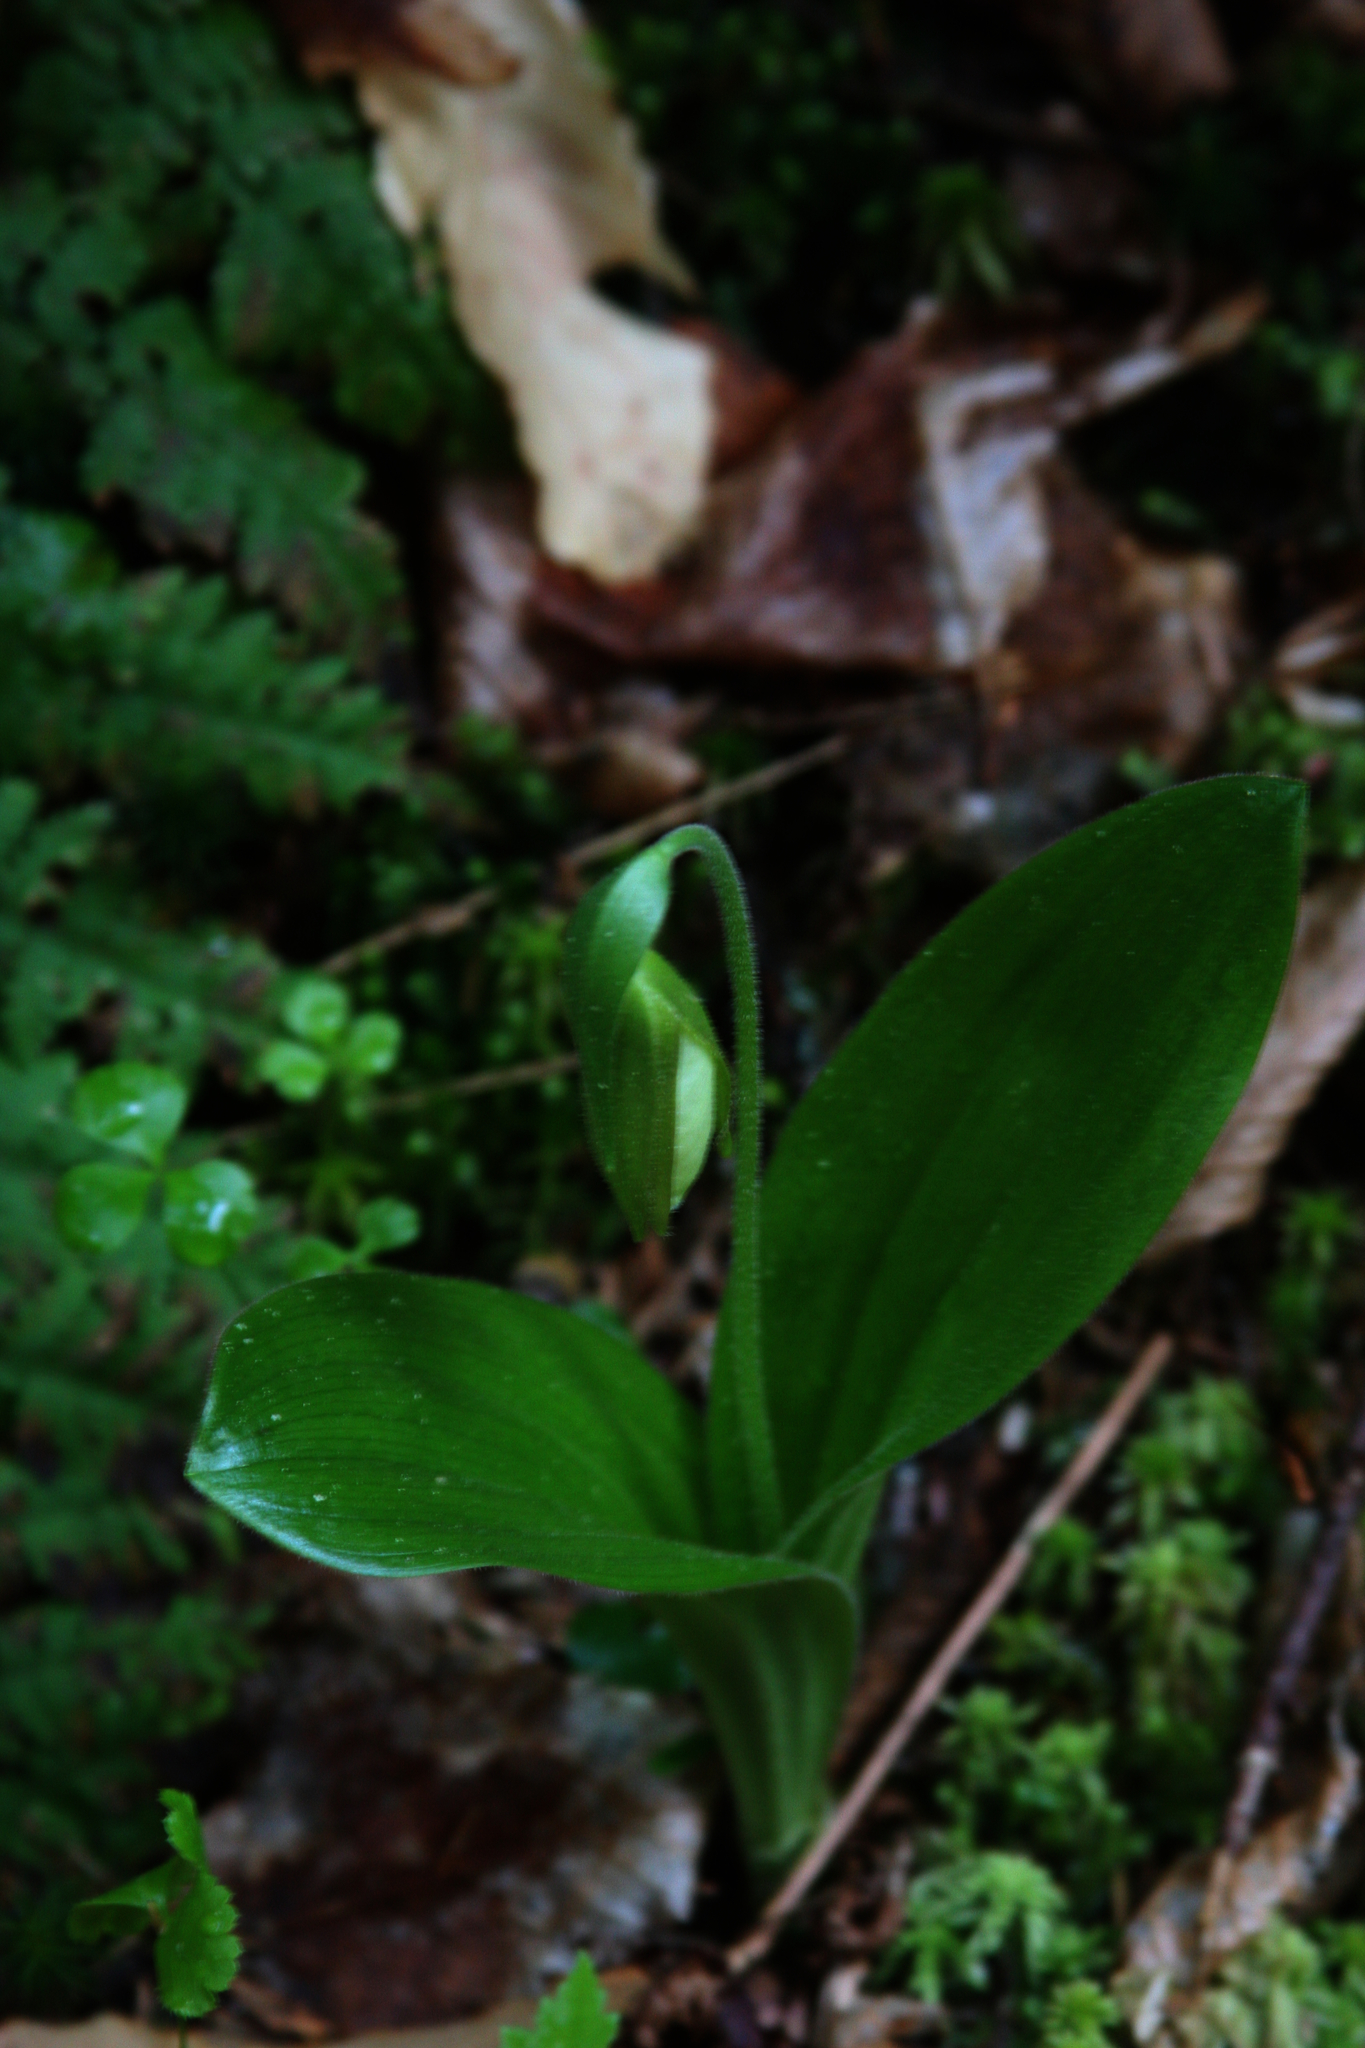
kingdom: Plantae
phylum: Tracheophyta
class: Liliopsida
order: Asparagales
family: Orchidaceae
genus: Cypripedium
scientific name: Cypripedium acaule
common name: Pink lady's-slipper
